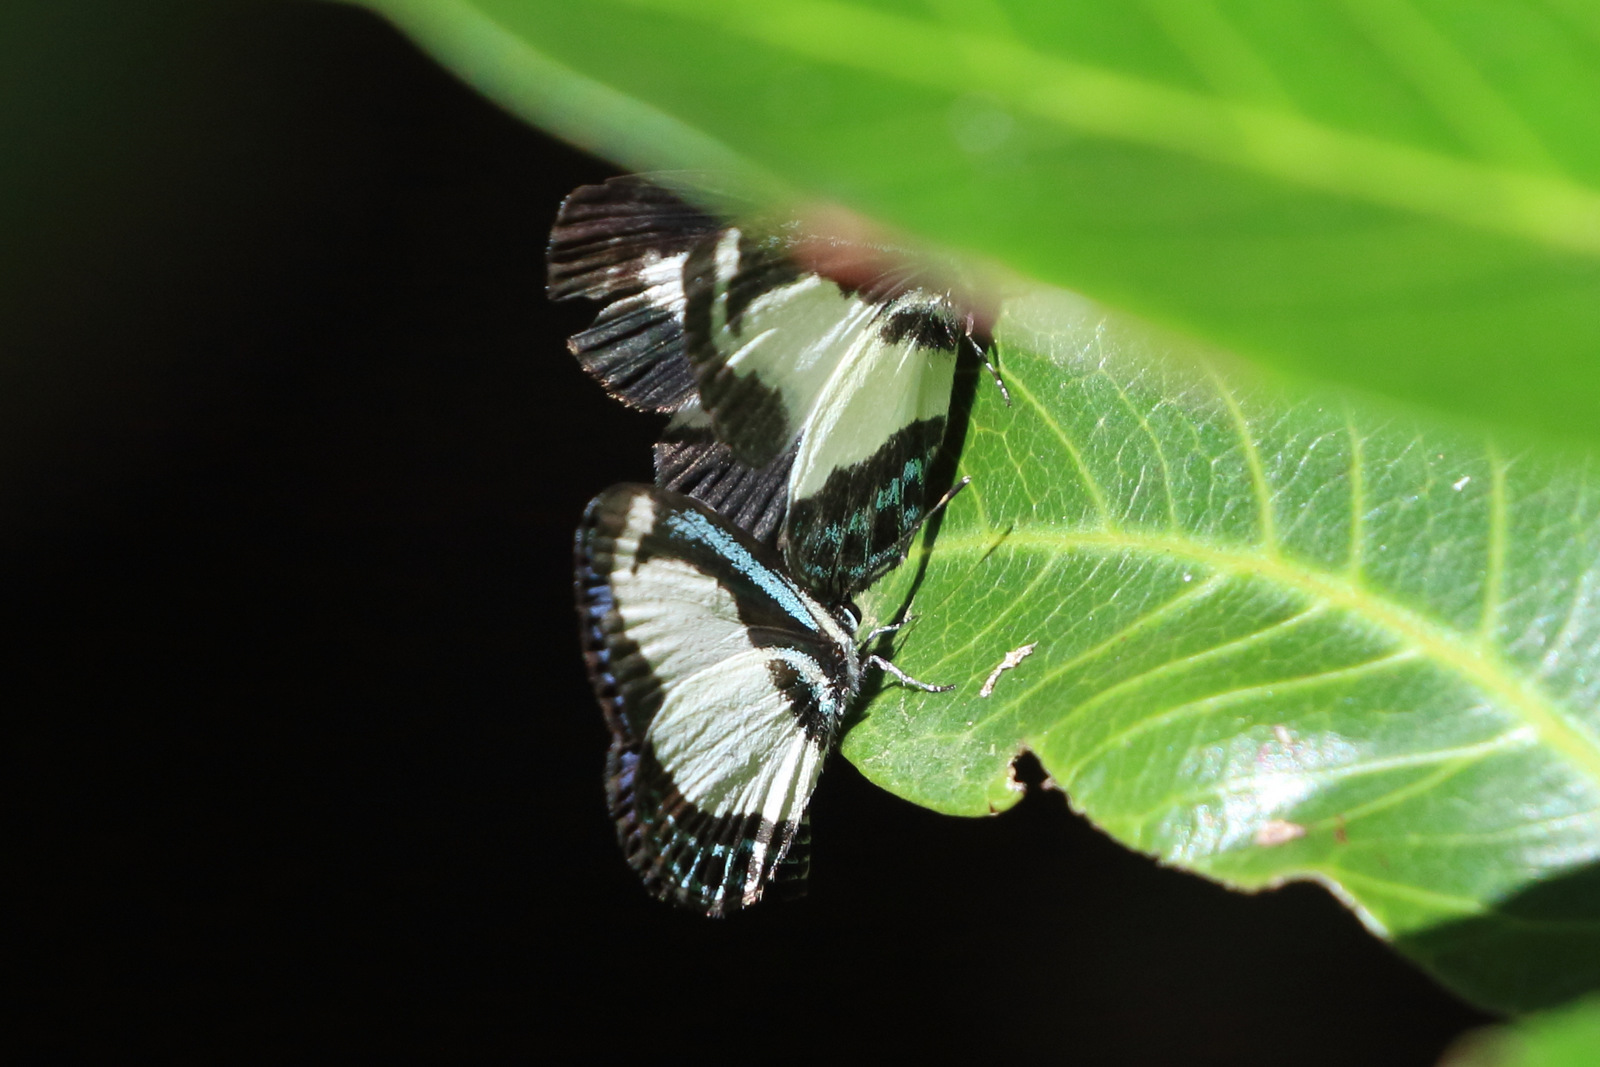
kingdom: Animalia
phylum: Arthropoda
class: Insecta
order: Lepidoptera
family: Lycaenidae
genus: Psychonotis
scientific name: Psychonotis caelius
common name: Small green banded blue
